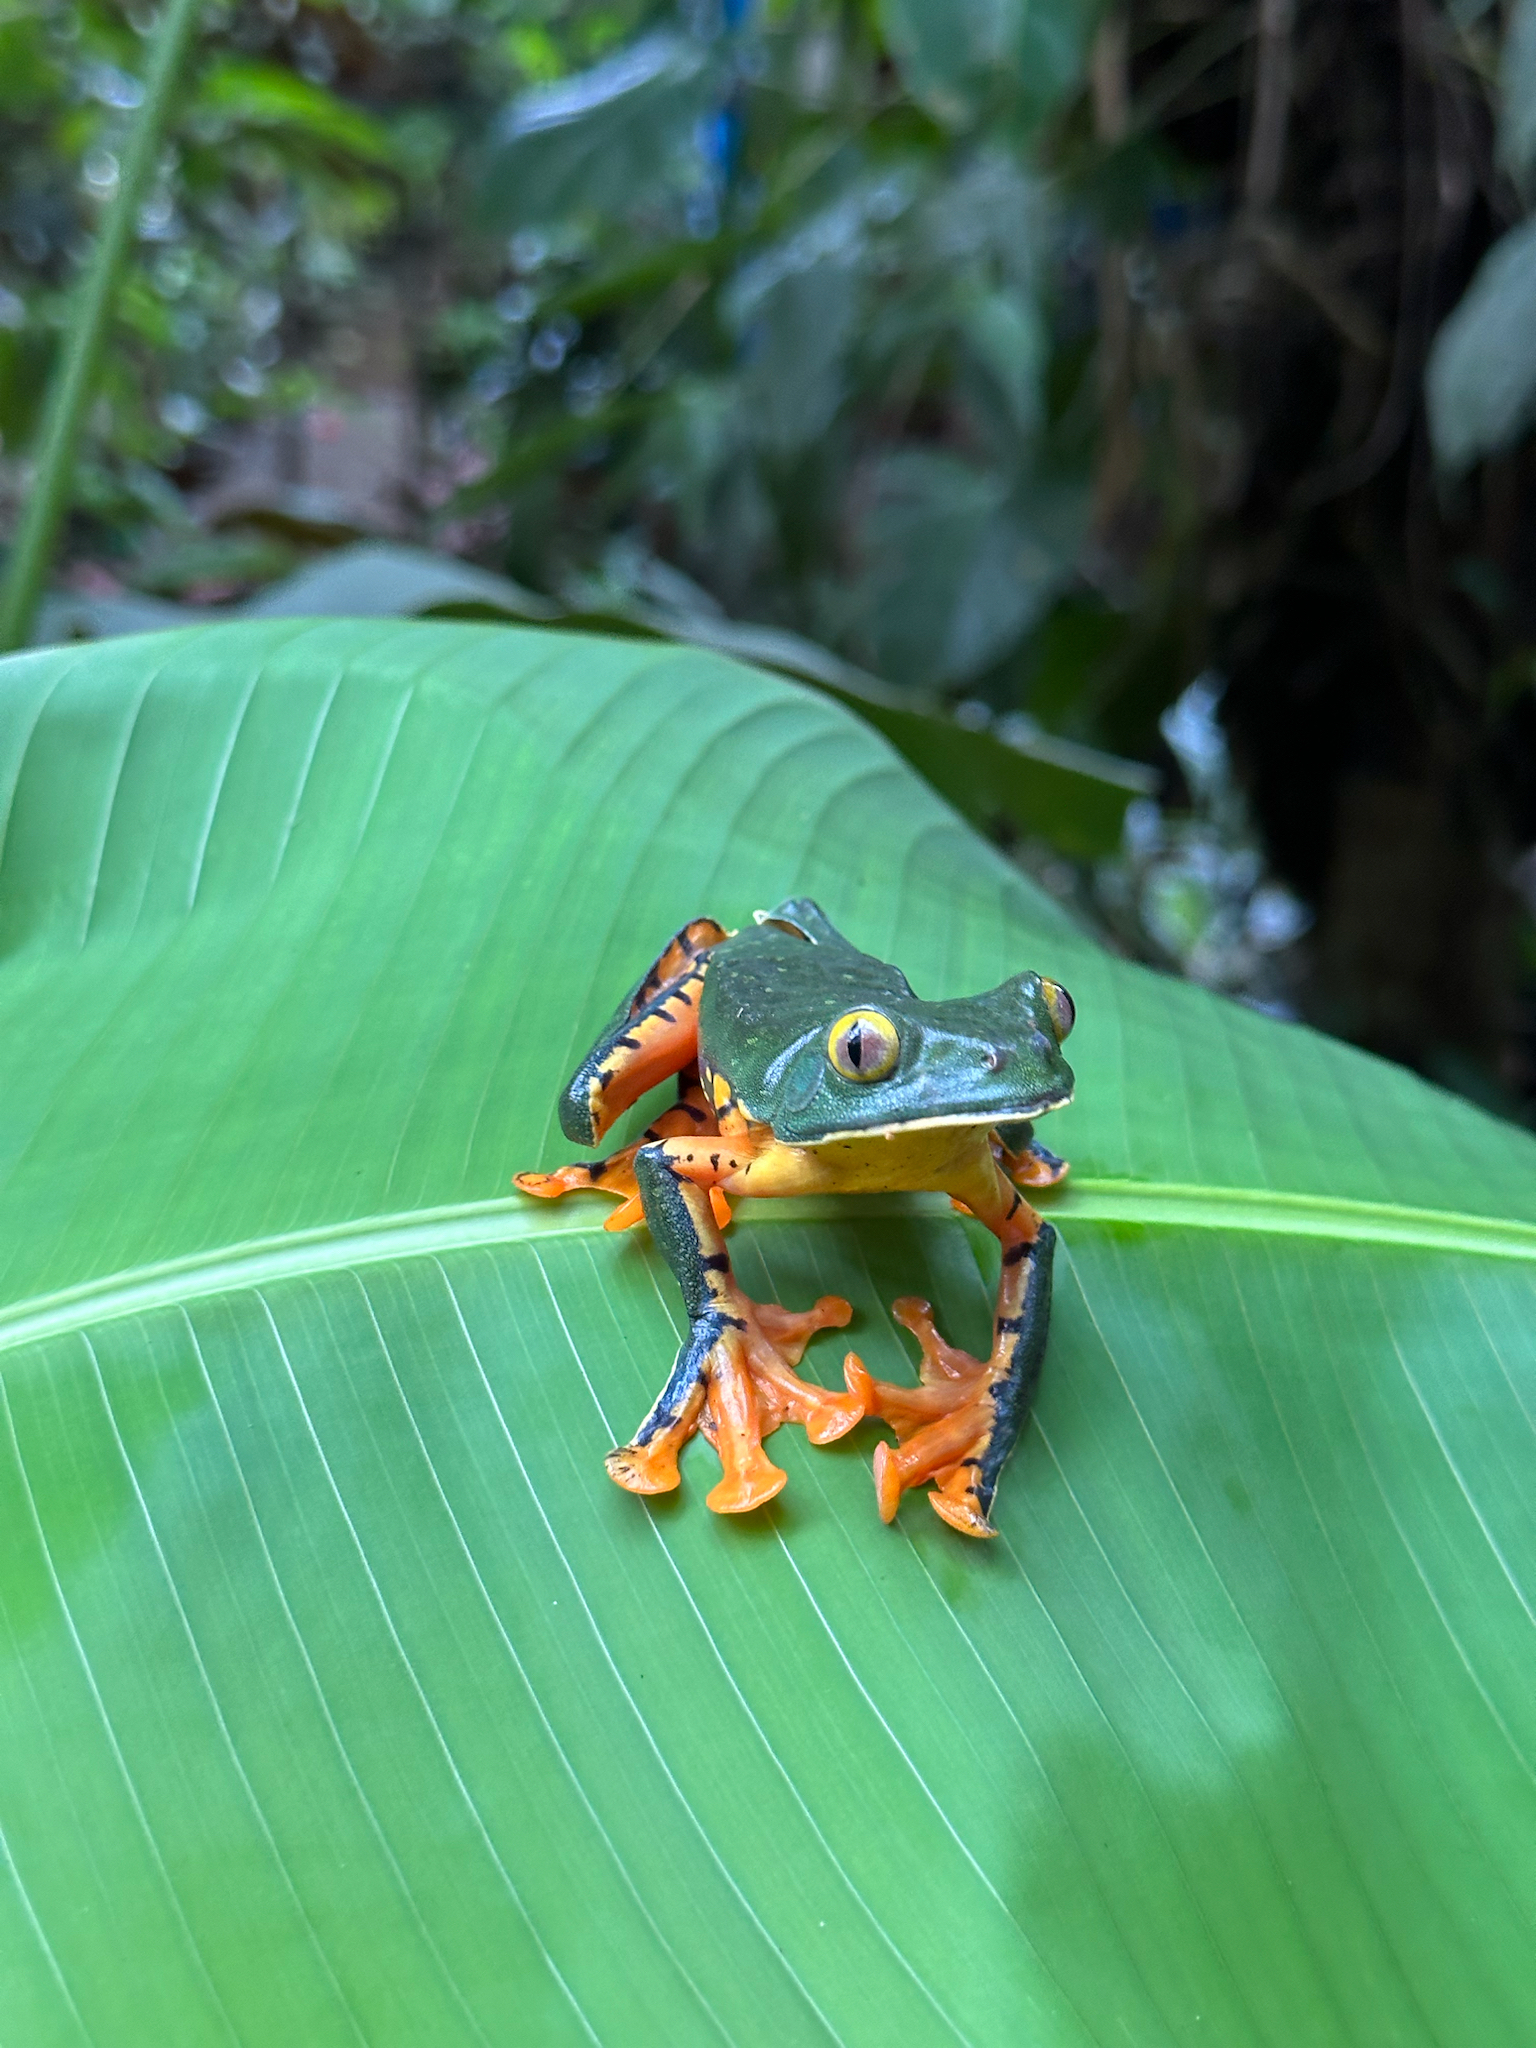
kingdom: Animalia
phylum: Chordata
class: Amphibia
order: Anura
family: Phyllomedusidae
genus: Cruziohyla
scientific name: Cruziohyla sylviae
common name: Sylvia's tree frog
